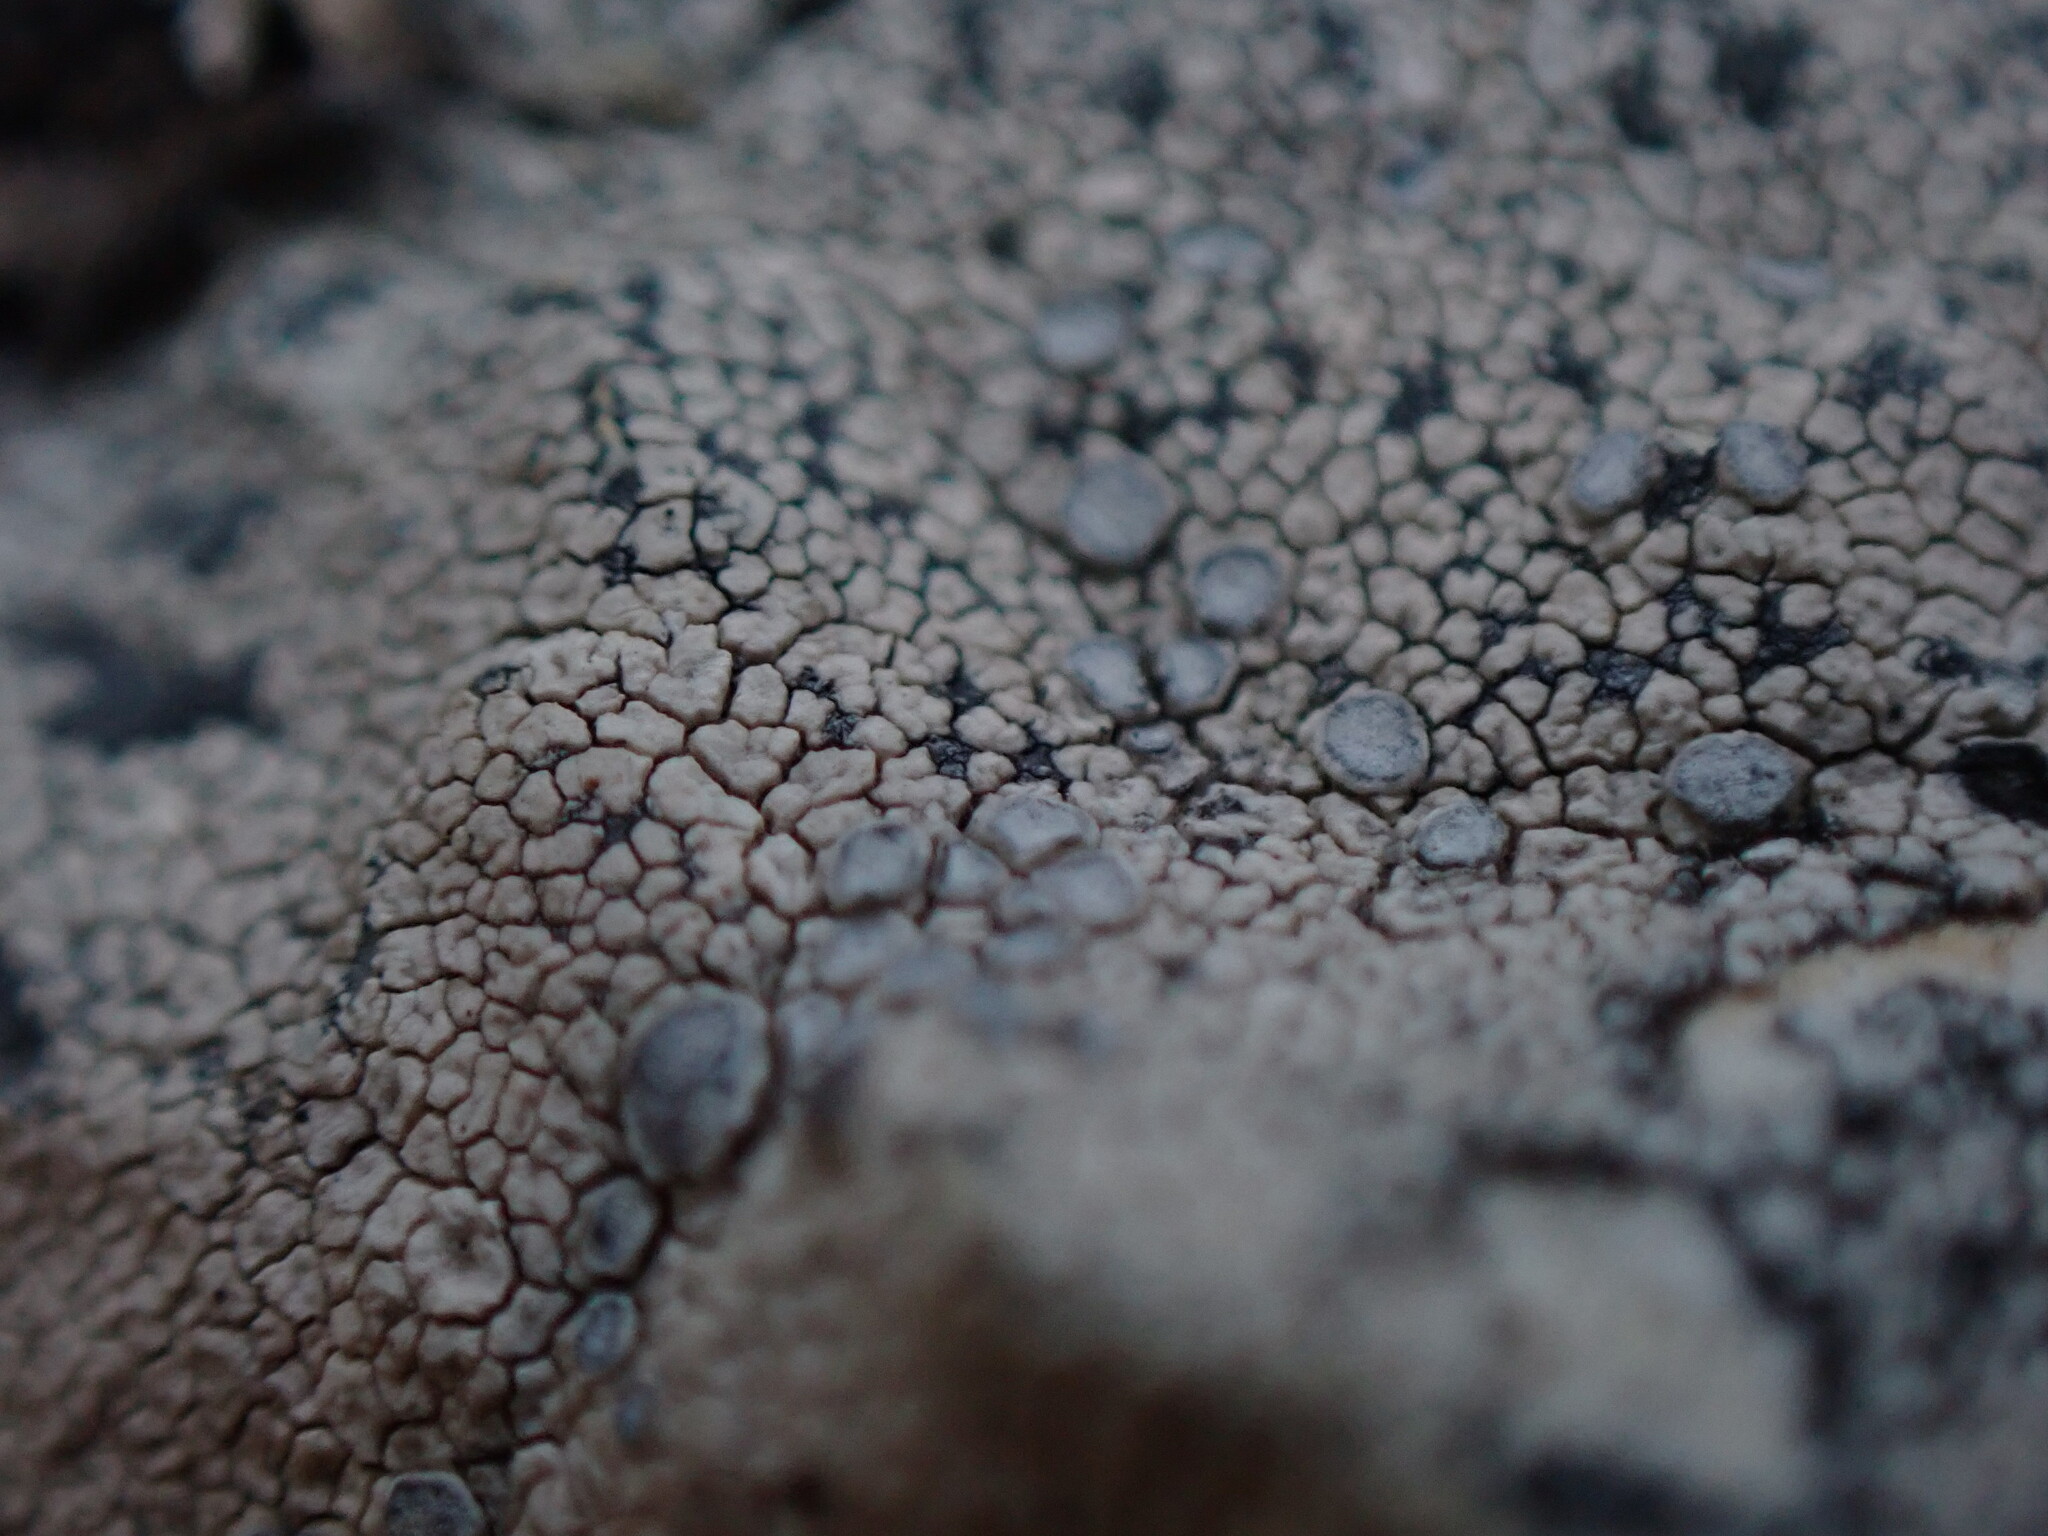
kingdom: Fungi
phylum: Ascomycota
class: Lecanoromycetes
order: Lecanorales
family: Lecanoraceae
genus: Glaucomaria
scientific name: Glaucomaria rupicola
